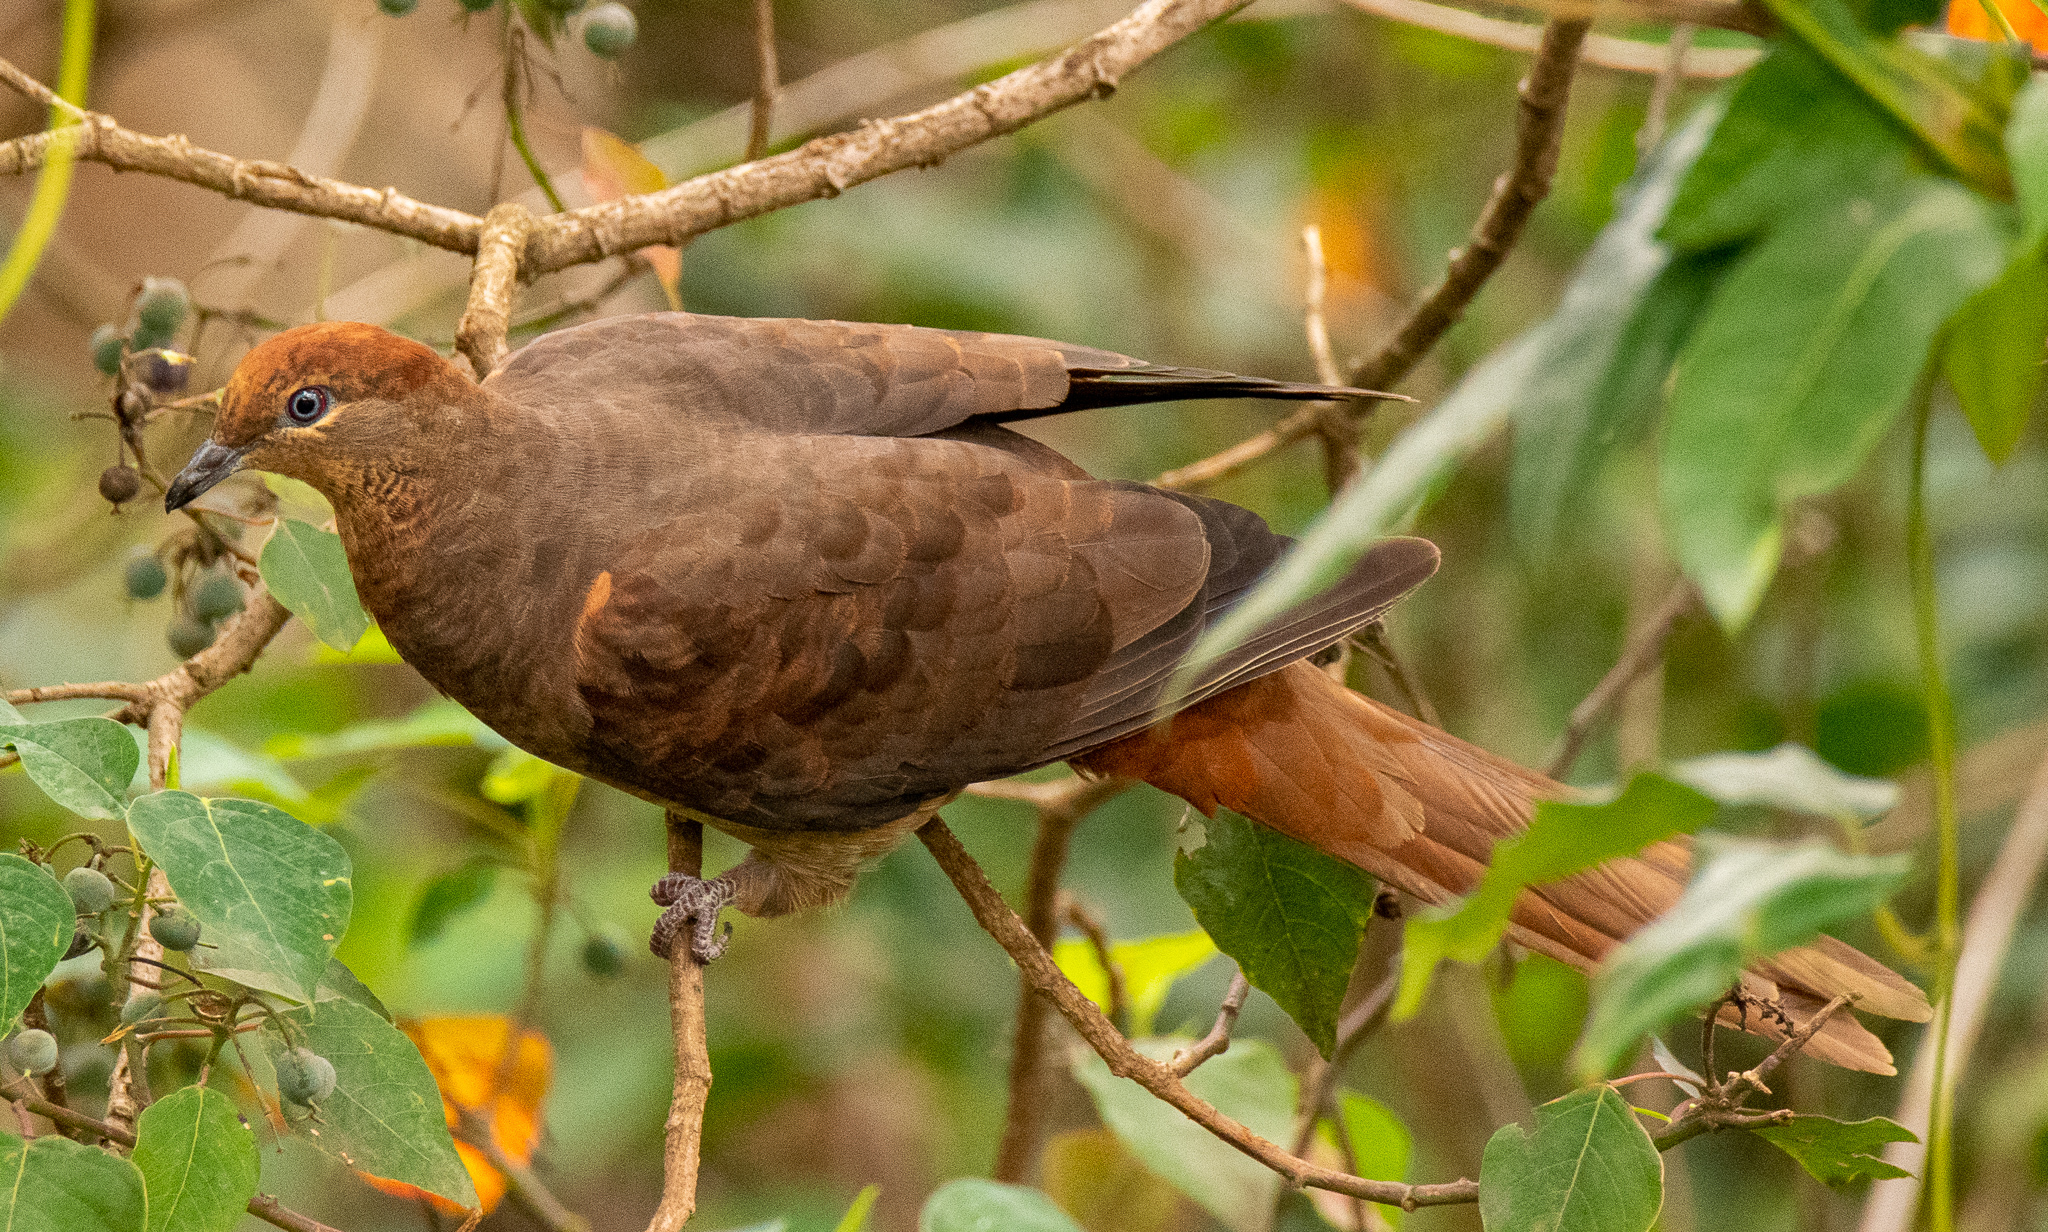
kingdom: Animalia
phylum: Chordata
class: Aves
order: Columbiformes
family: Columbidae
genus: Macropygia
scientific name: Macropygia phasianella
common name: Brown cuckoo-dove
